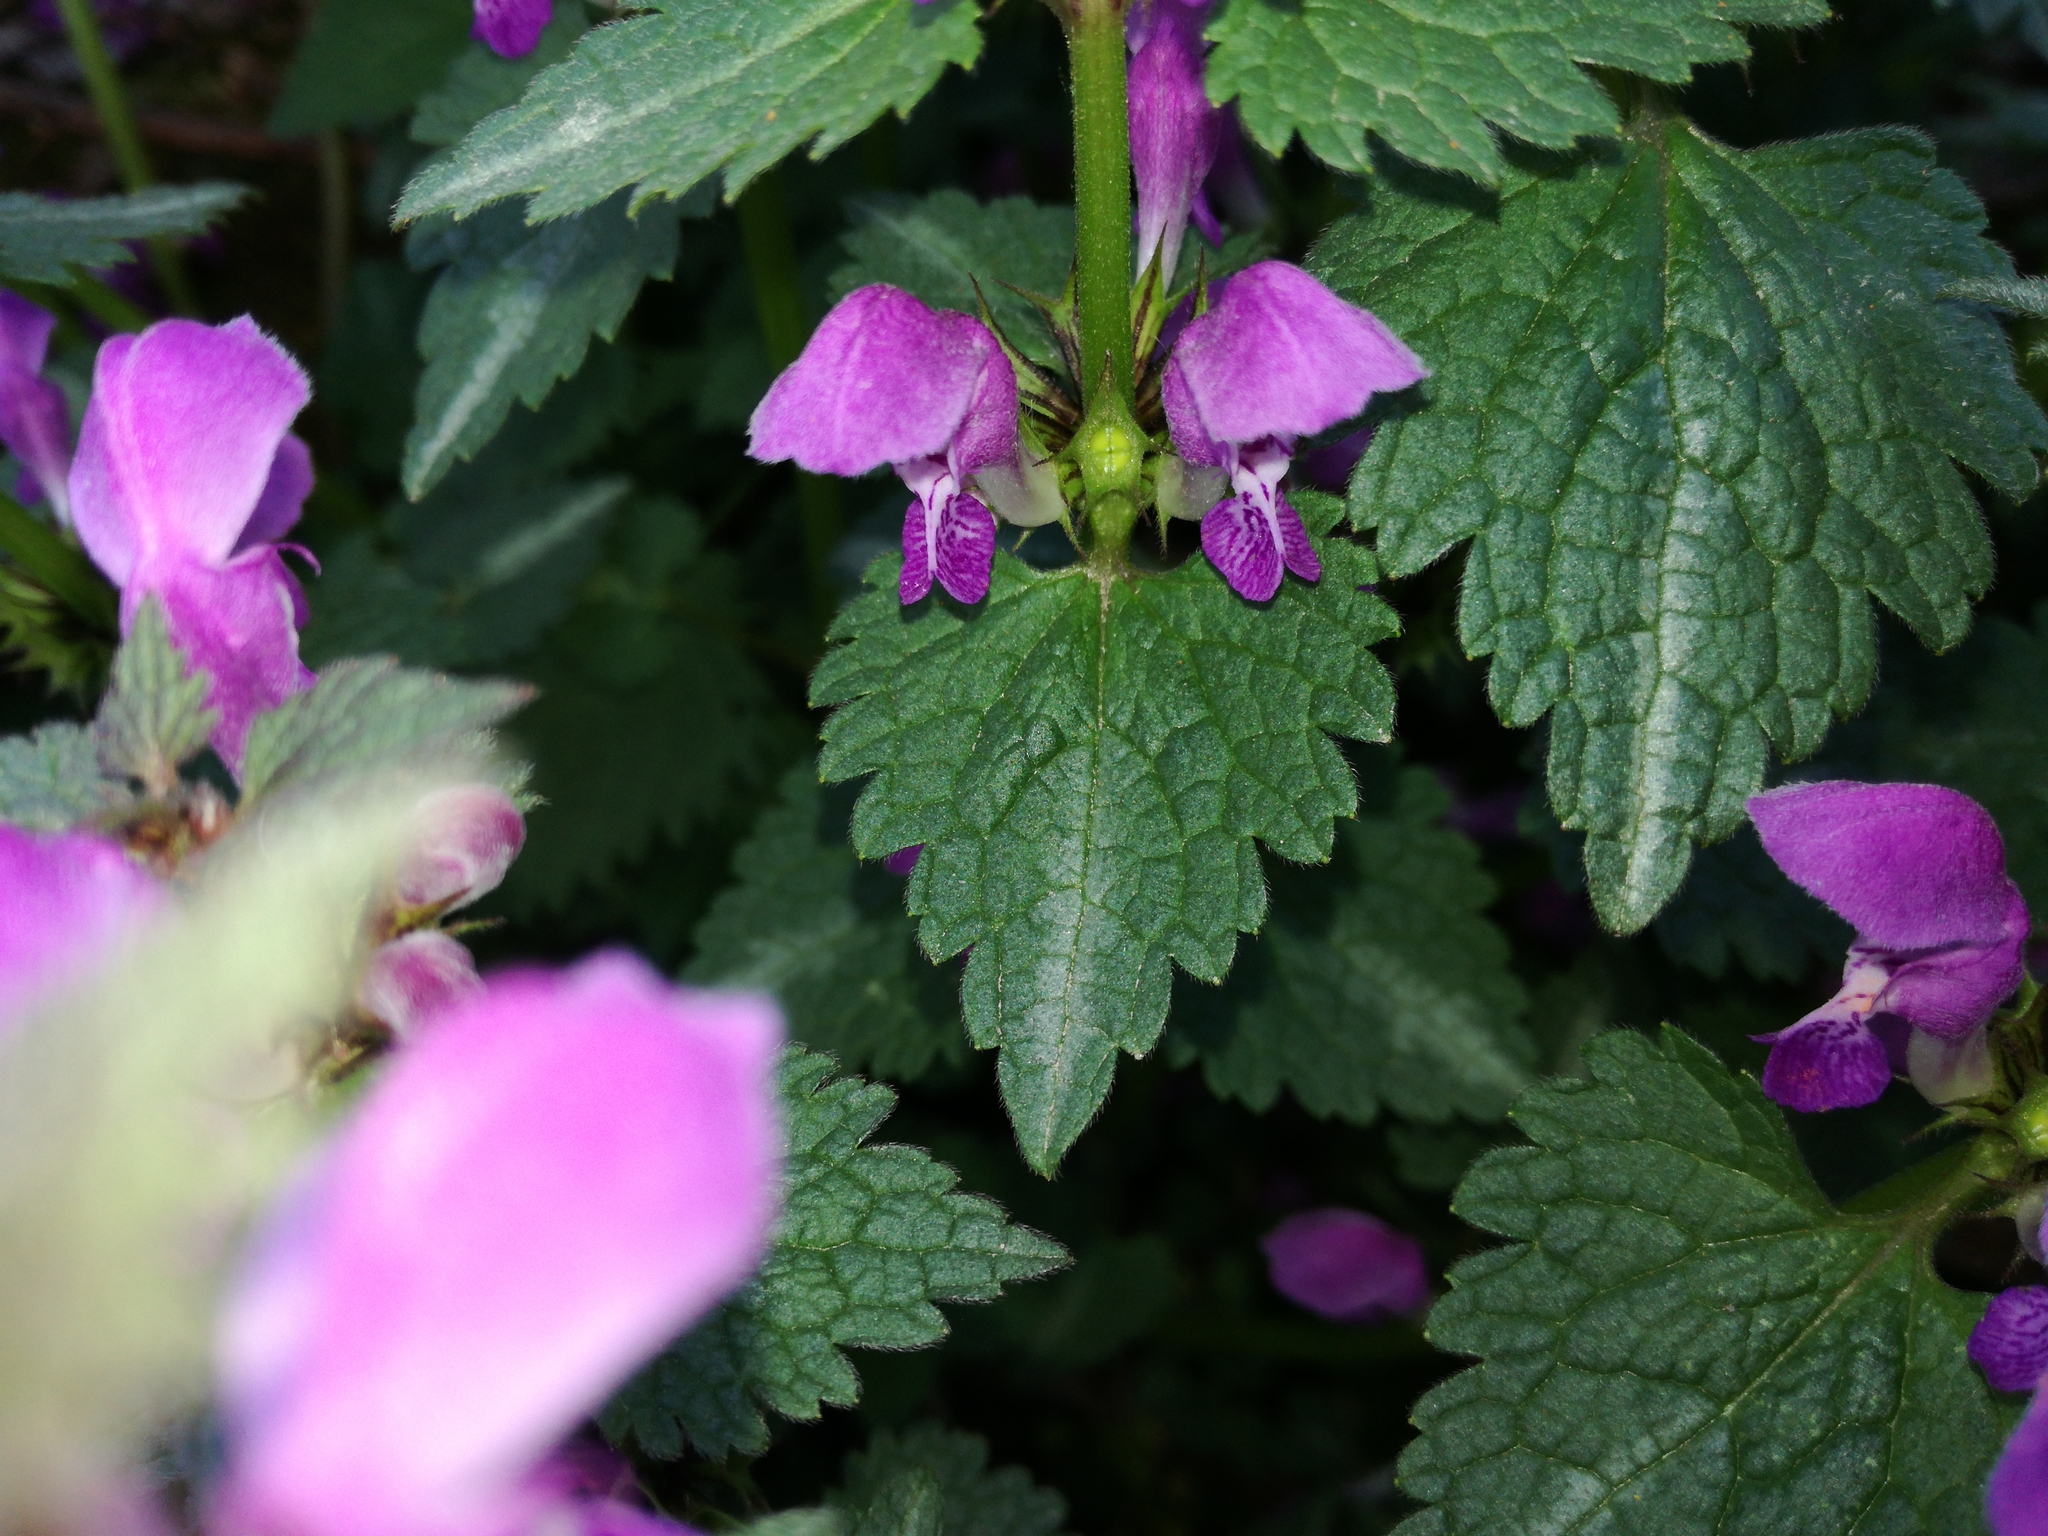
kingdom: Plantae
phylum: Tracheophyta
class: Magnoliopsida
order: Lamiales
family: Lamiaceae
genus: Lamium
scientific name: Lamium maculatum
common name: Spotted dead-nettle
